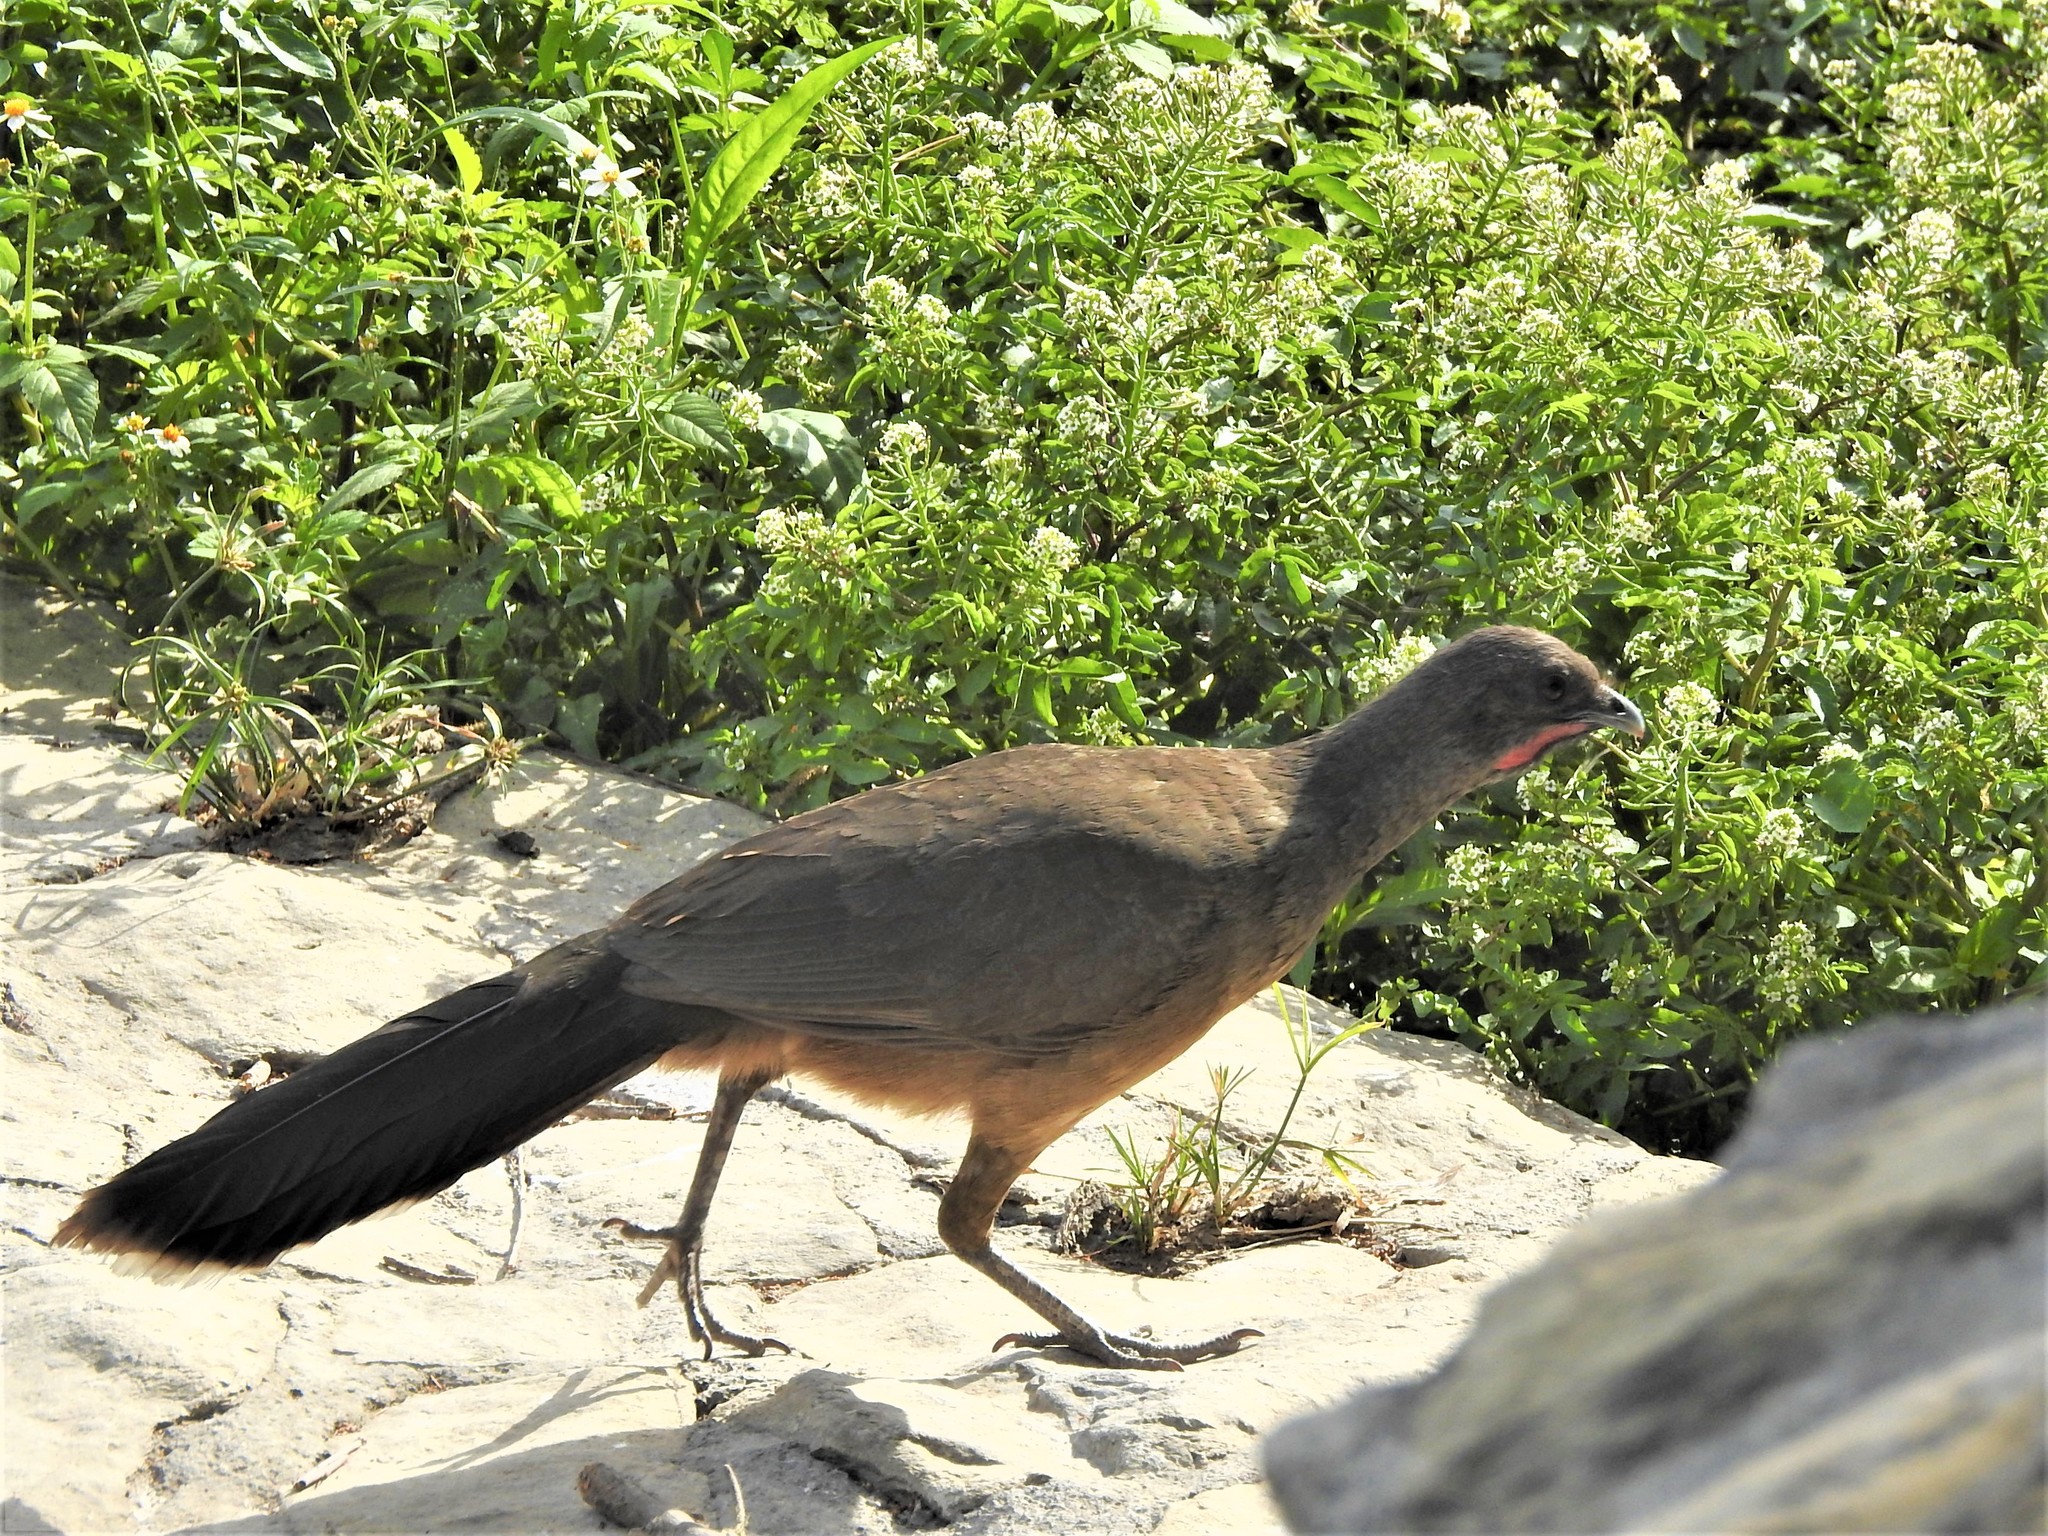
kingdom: Animalia
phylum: Chordata
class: Aves
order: Galliformes
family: Cracidae
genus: Ortalis
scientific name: Ortalis vetula
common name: Plain chachalaca
